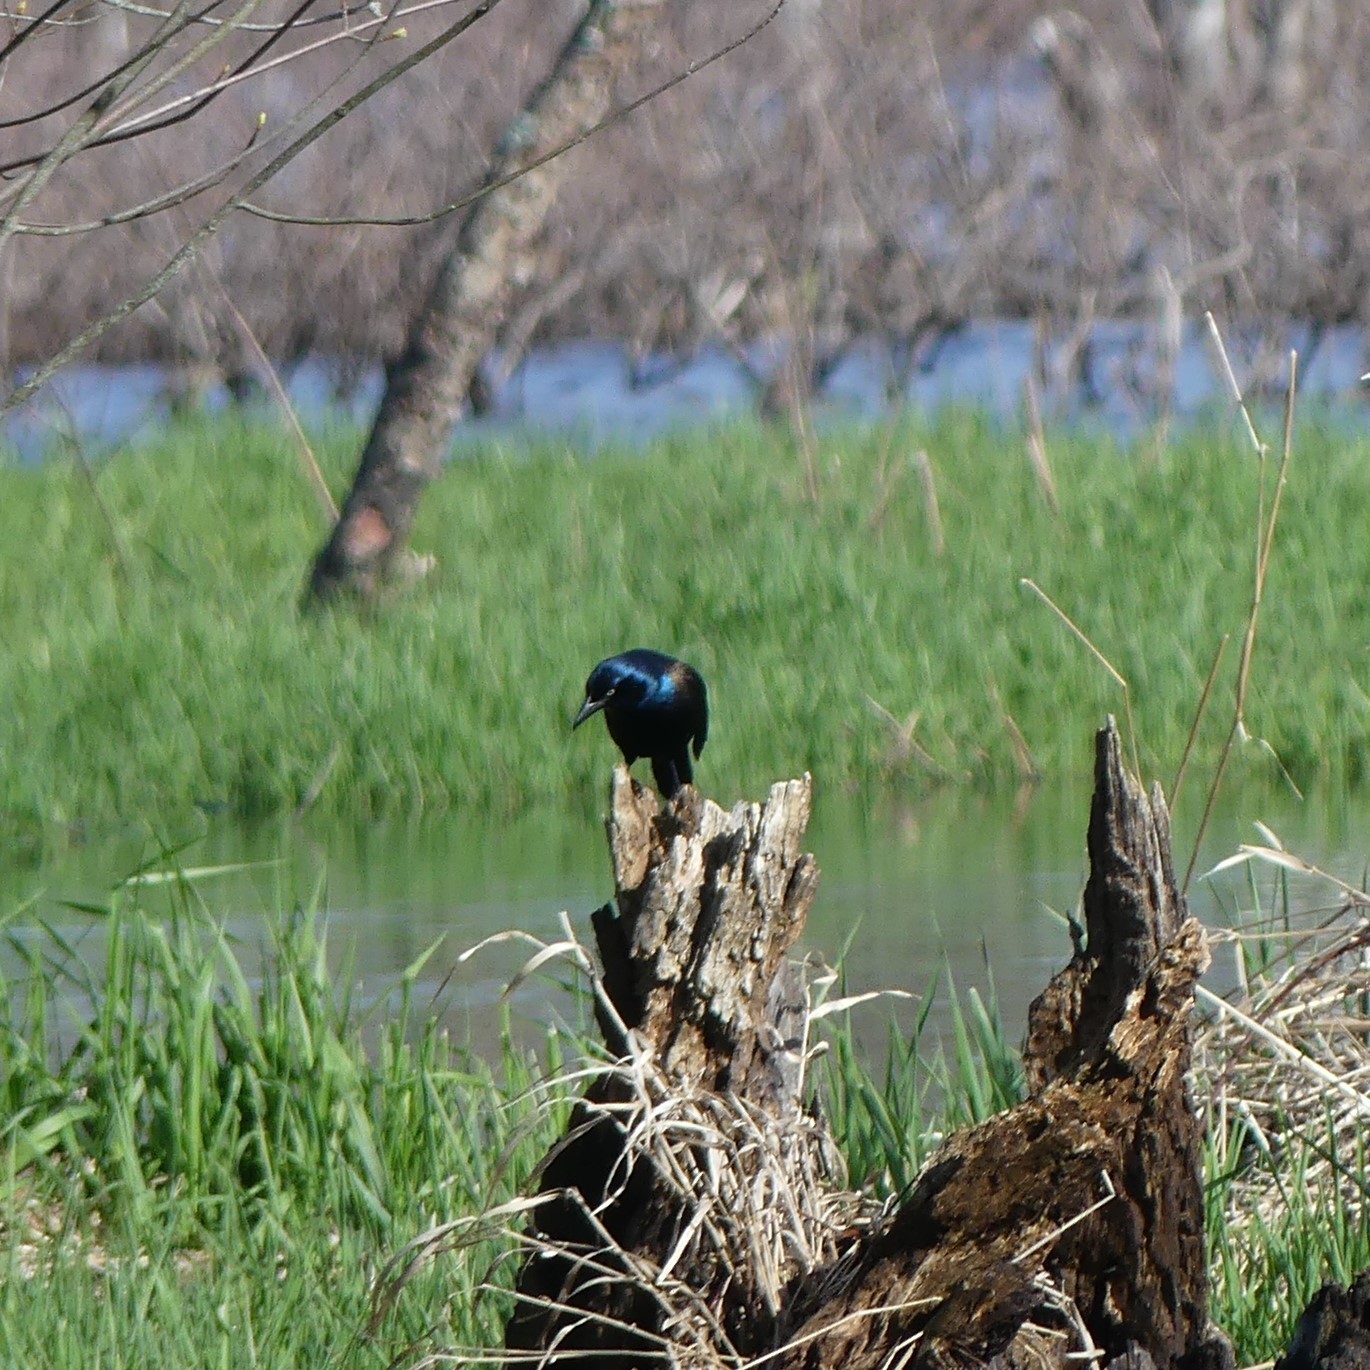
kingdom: Animalia
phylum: Chordata
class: Aves
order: Passeriformes
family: Icteridae
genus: Quiscalus
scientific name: Quiscalus quiscula
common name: Common grackle
